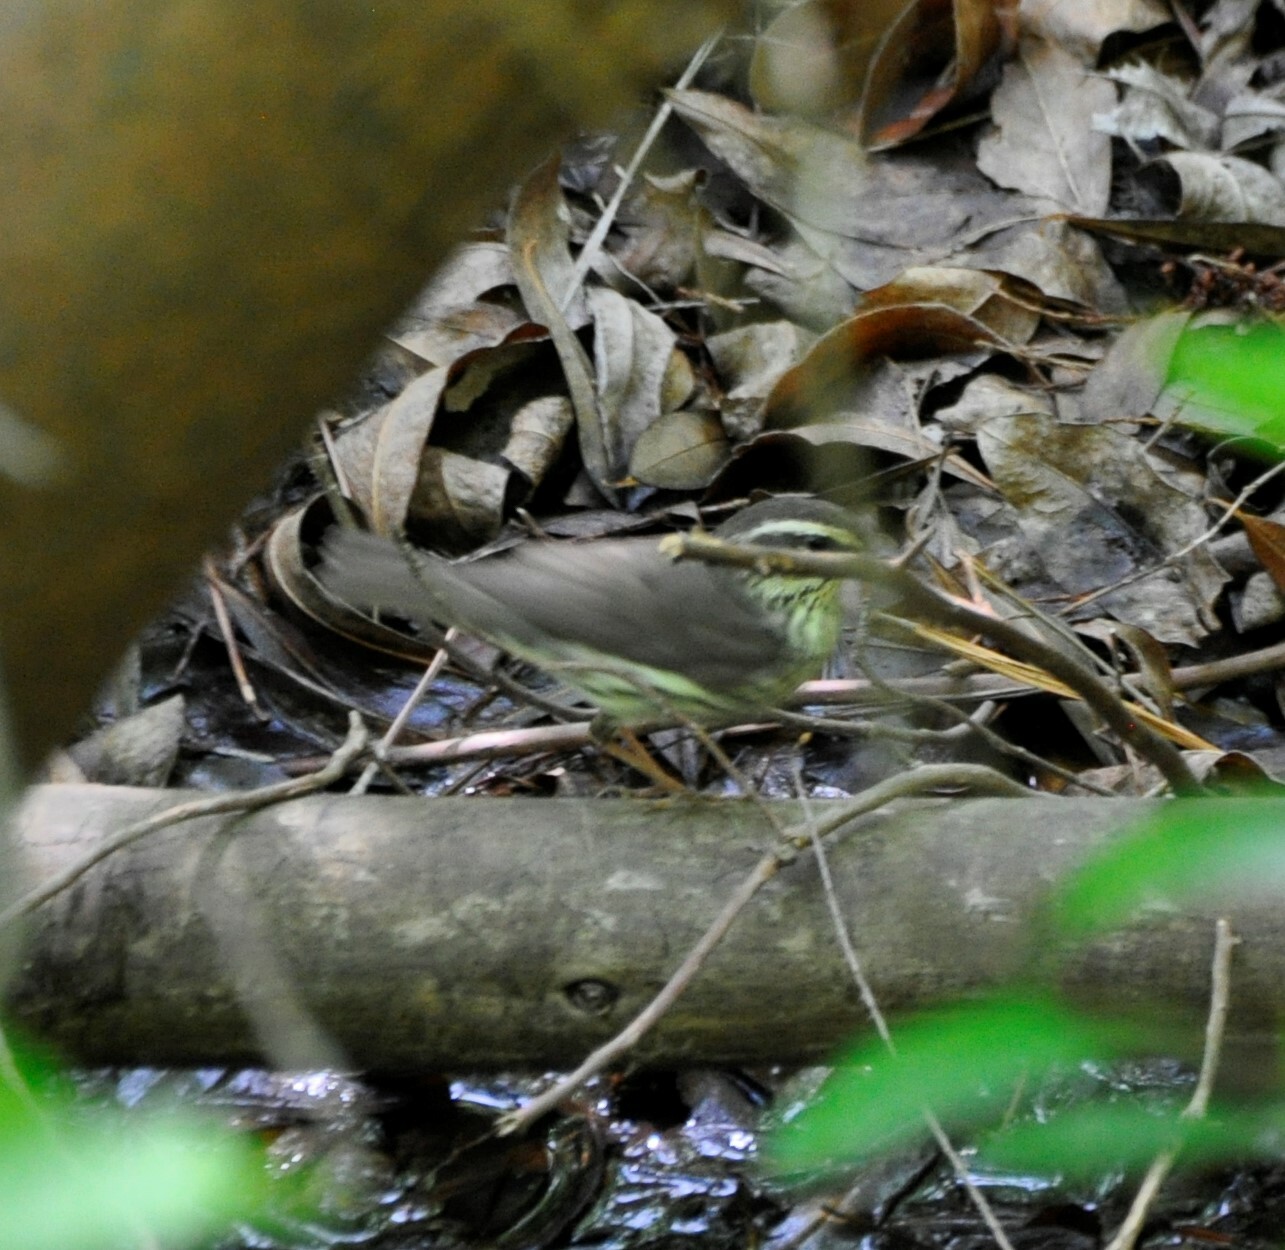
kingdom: Animalia
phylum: Chordata
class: Aves
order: Passeriformes
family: Parulidae
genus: Parkesia
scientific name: Parkesia noveboracensis
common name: Northern waterthrush
